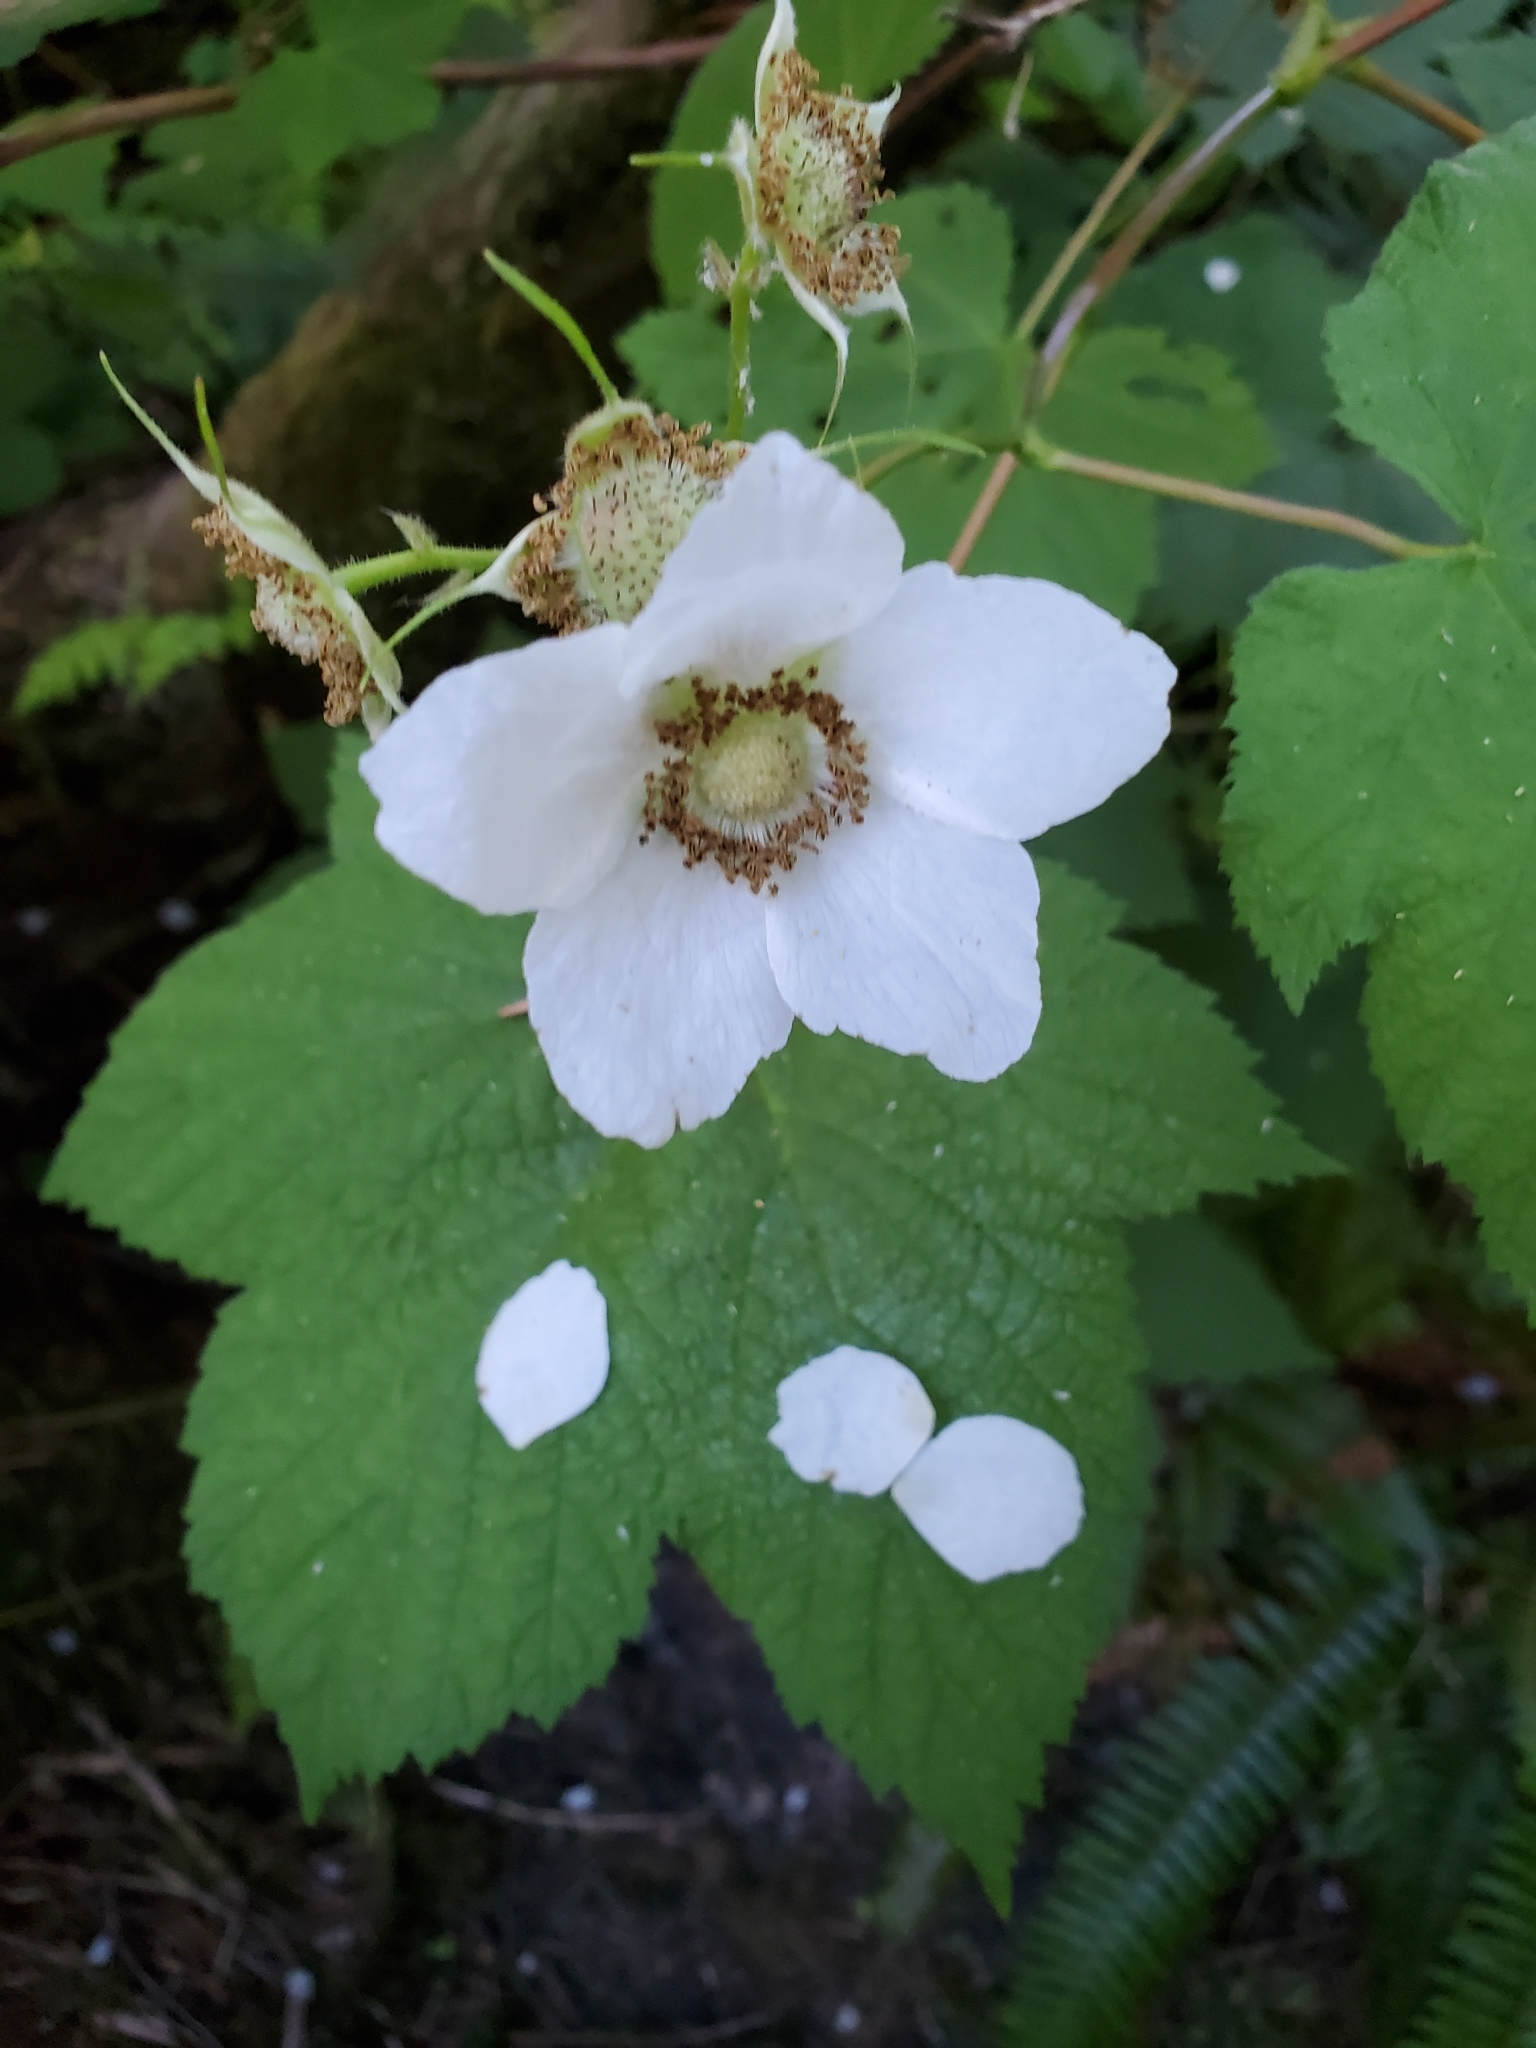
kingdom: Plantae
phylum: Tracheophyta
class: Magnoliopsida
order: Rosales
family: Rosaceae
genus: Rubus
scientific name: Rubus parviflorus
